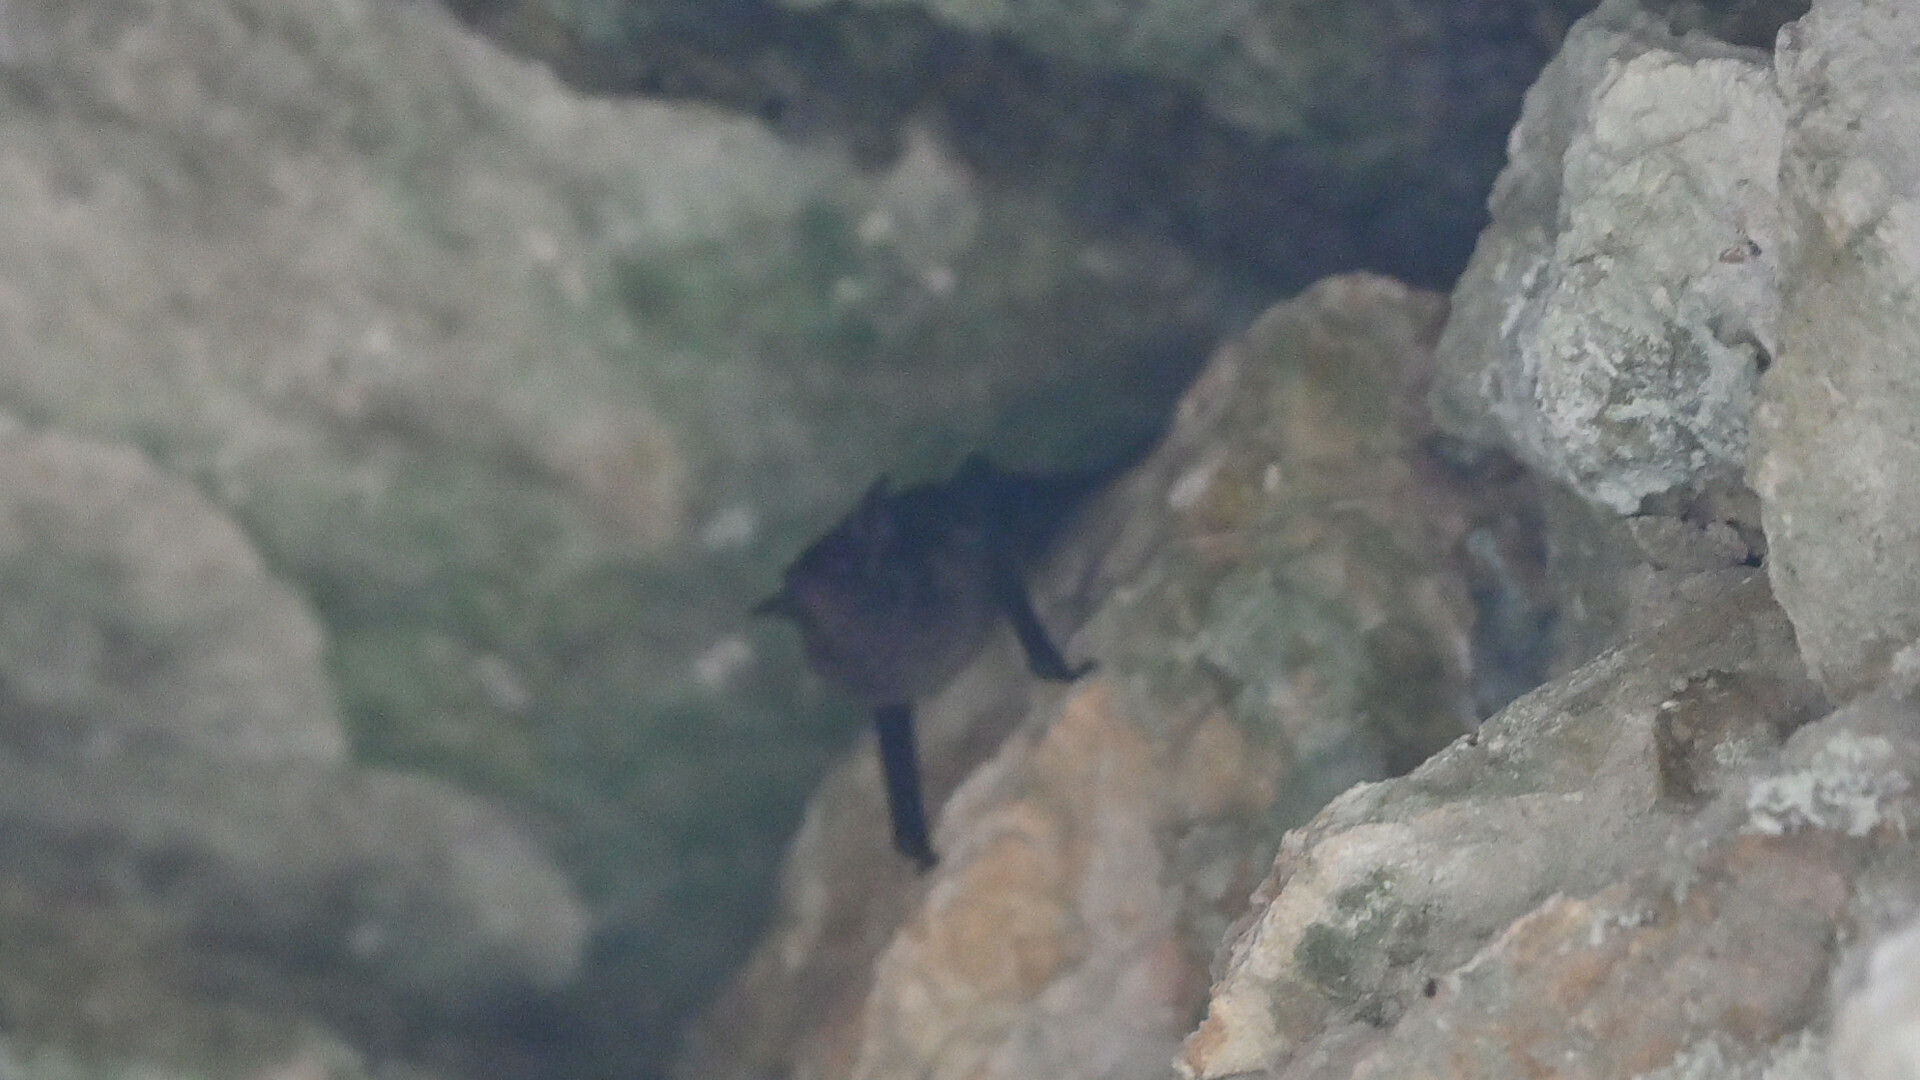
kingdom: Animalia
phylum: Chordata
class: Mammalia
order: Chiroptera
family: Emballonuridae
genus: Saccopteryx
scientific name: Saccopteryx bilineata
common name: Greater sac-winged bat
